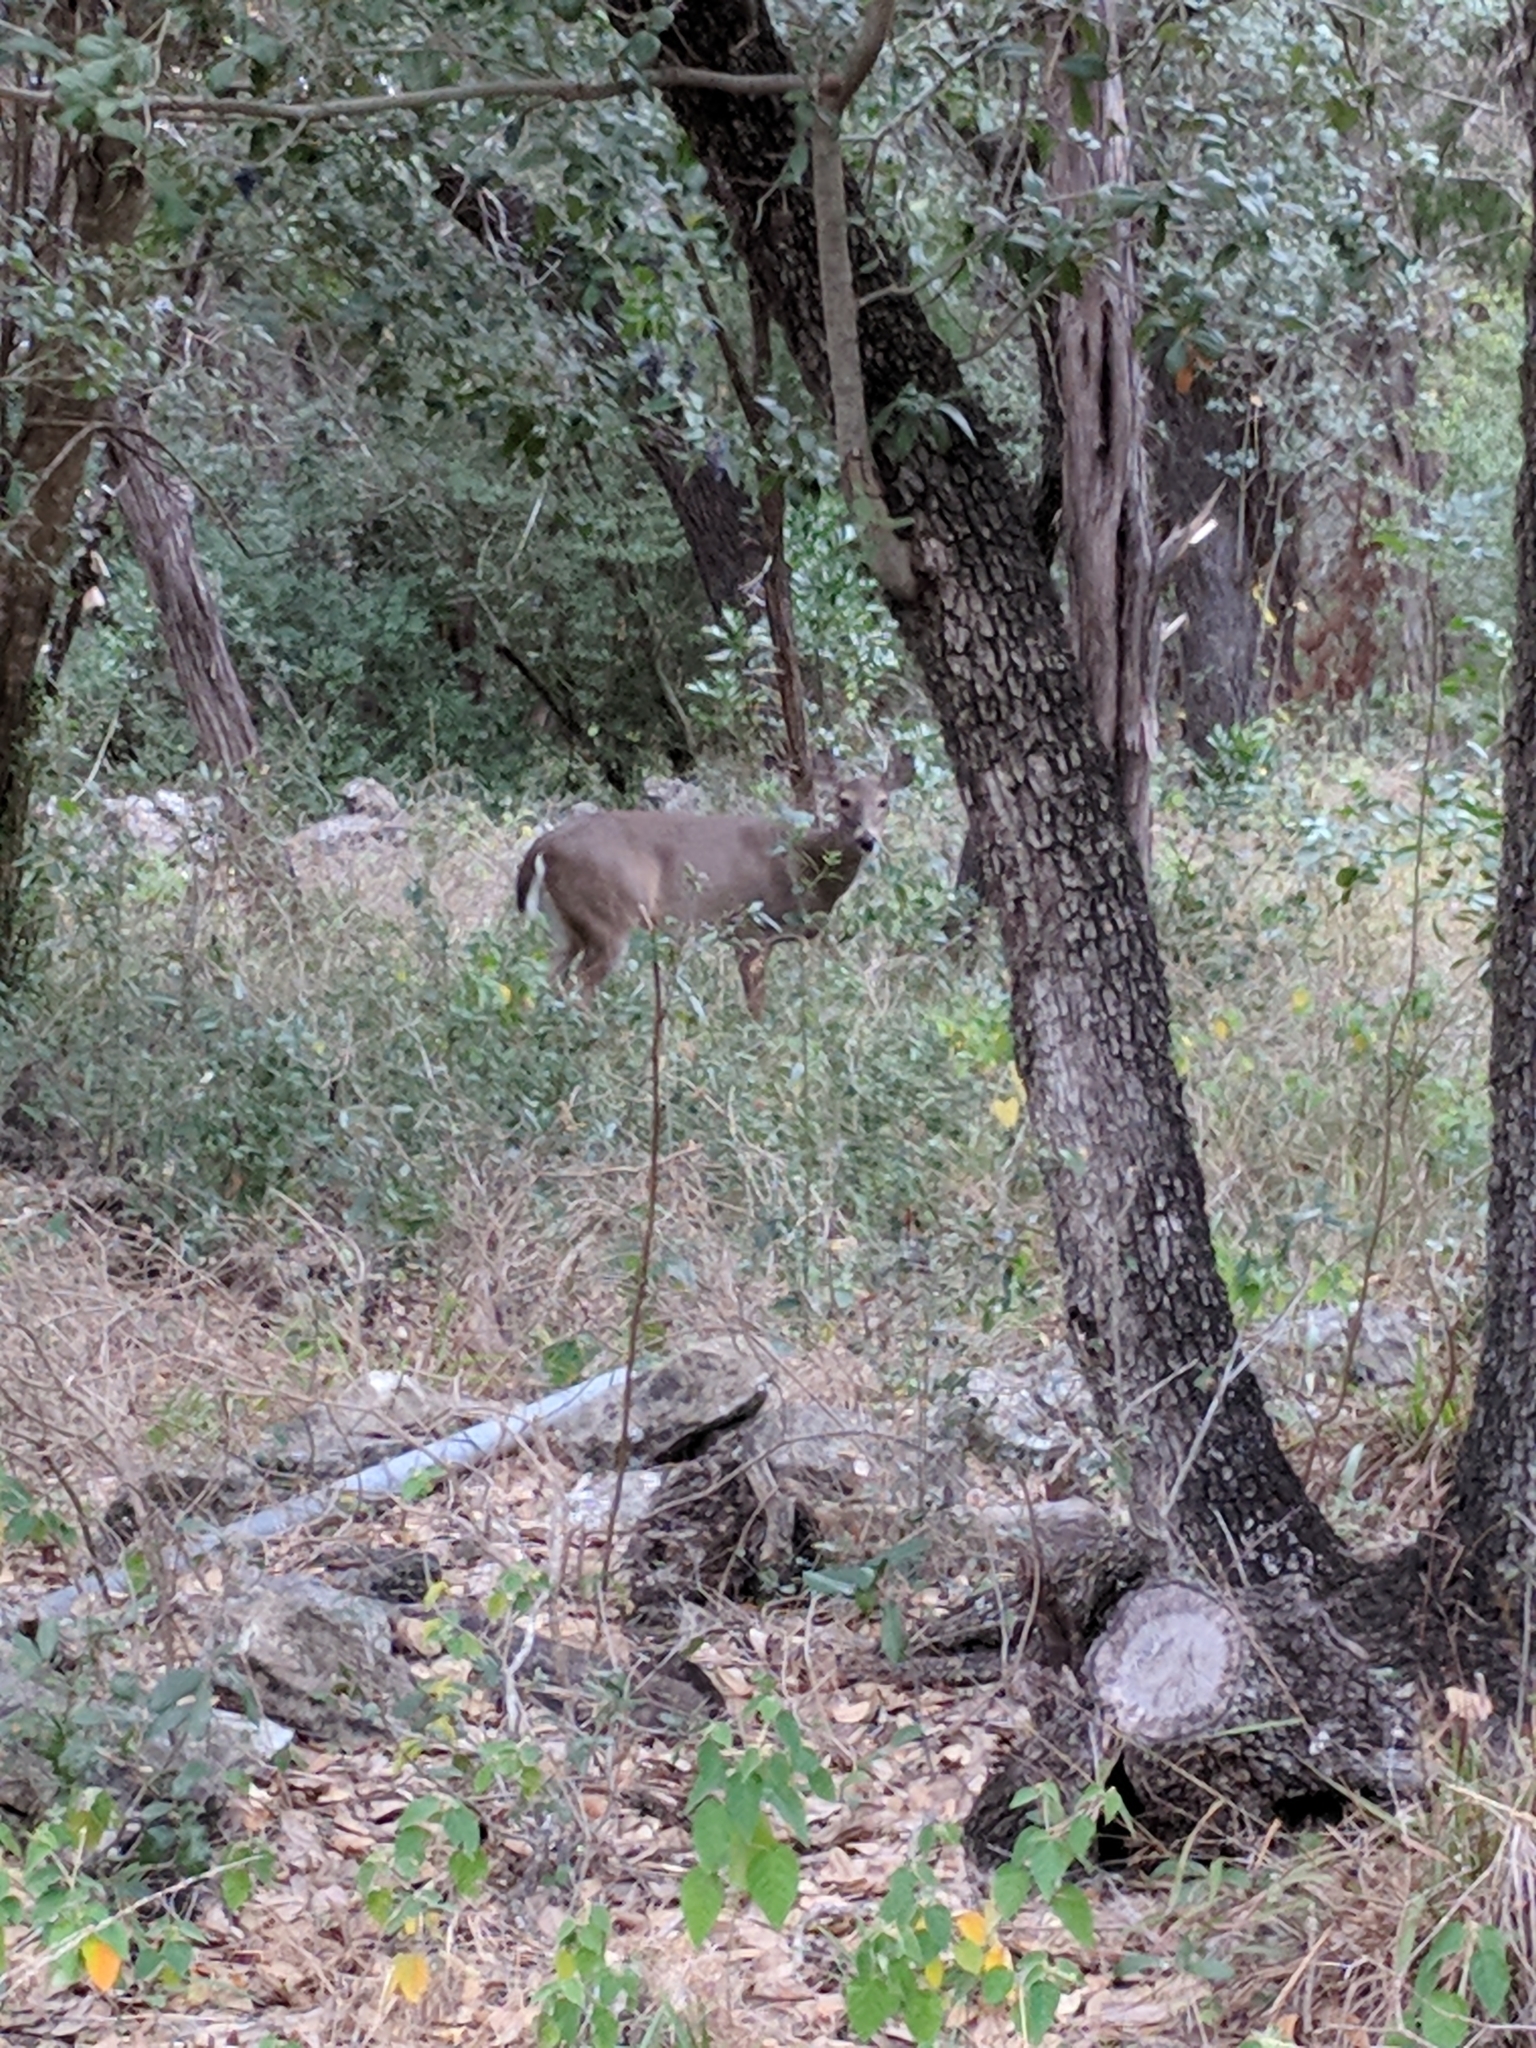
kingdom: Animalia
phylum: Chordata
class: Mammalia
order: Artiodactyla
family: Cervidae
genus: Odocoileus
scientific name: Odocoileus virginianus
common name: White-tailed deer
